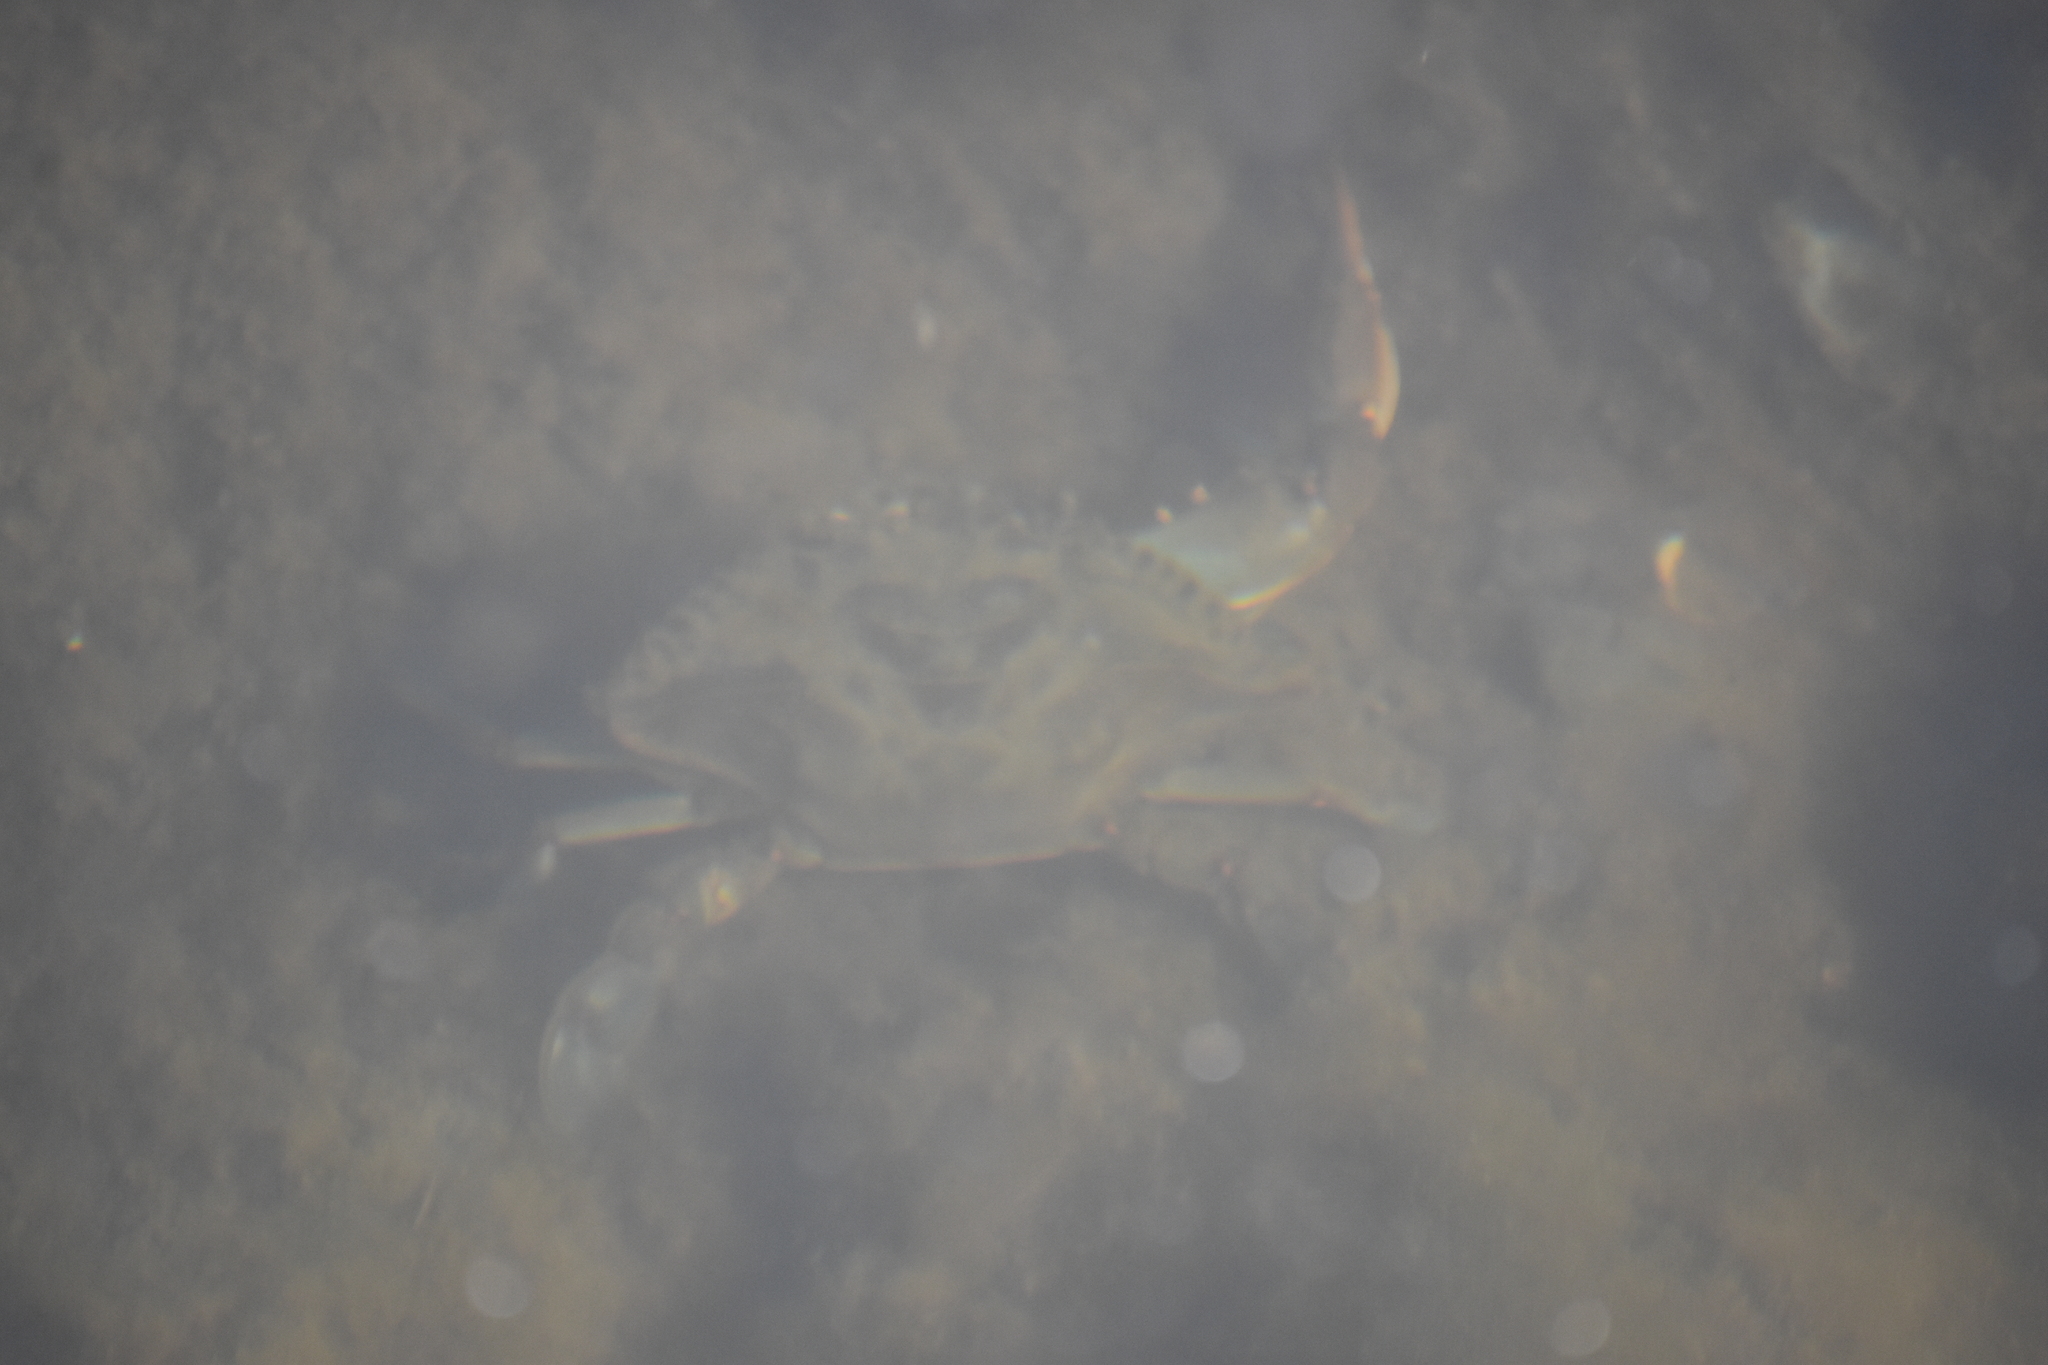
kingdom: Animalia
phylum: Arthropoda
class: Malacostraca
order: Decapoda
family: Portunidae
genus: Callinectes
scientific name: Callinectes sapidus
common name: Blue crab
